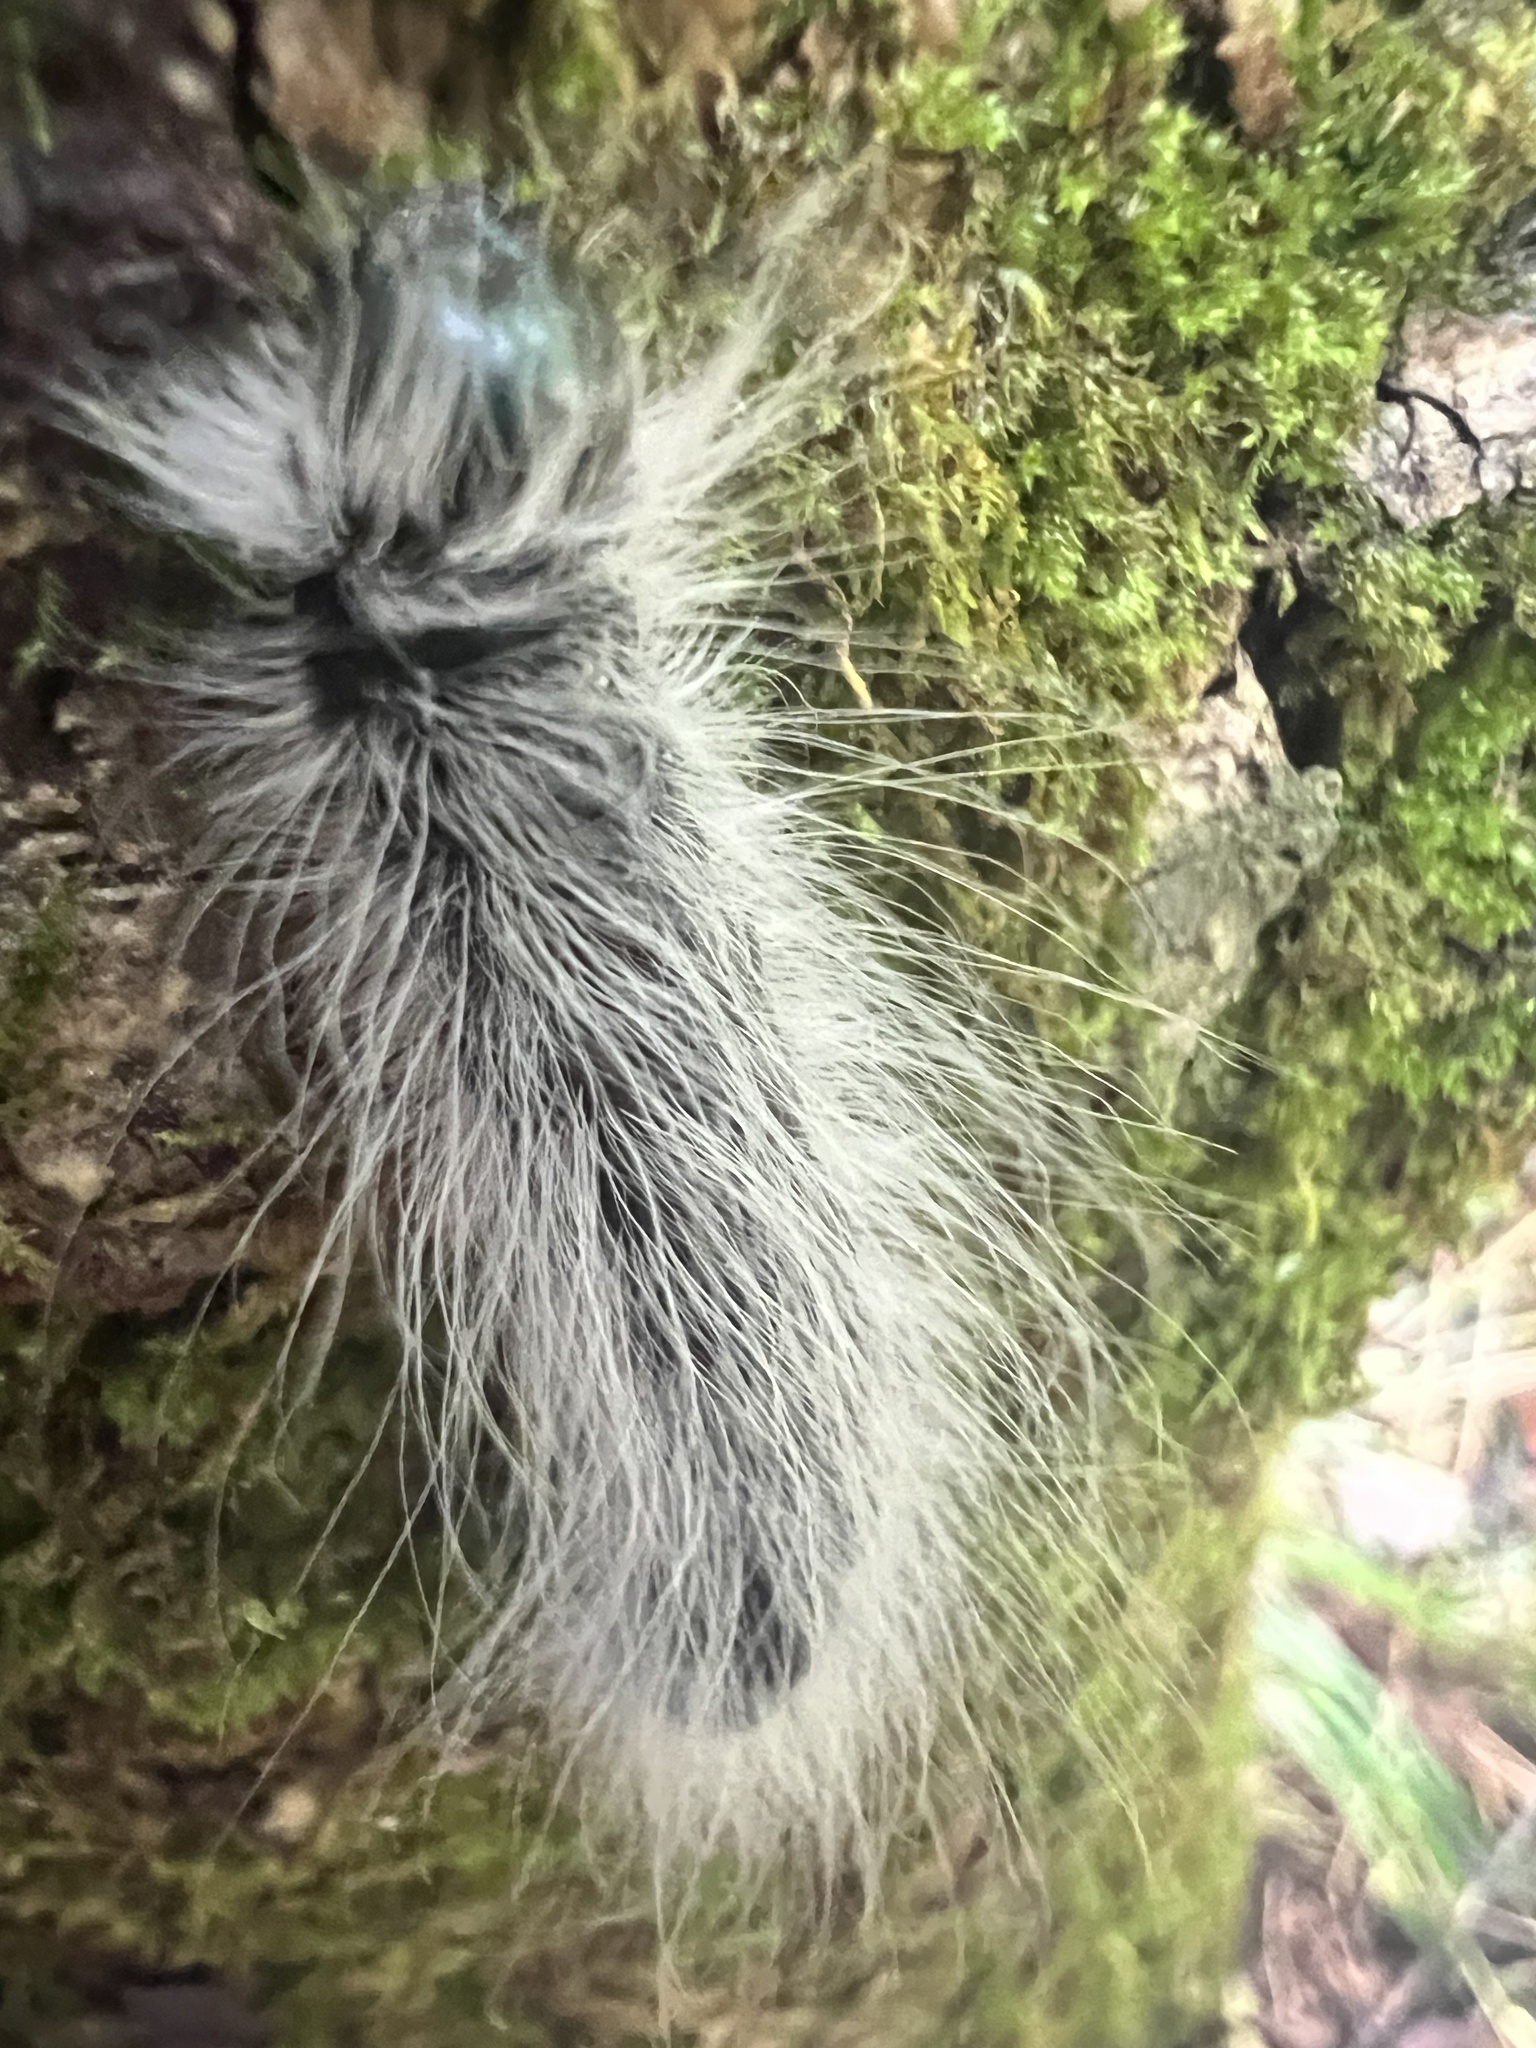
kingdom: Animalia
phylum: Arthropoda
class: Insecta
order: Lepidoptera
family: Notodontidae
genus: Datana
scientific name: Datana integerrima
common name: Walnut caterpillar
